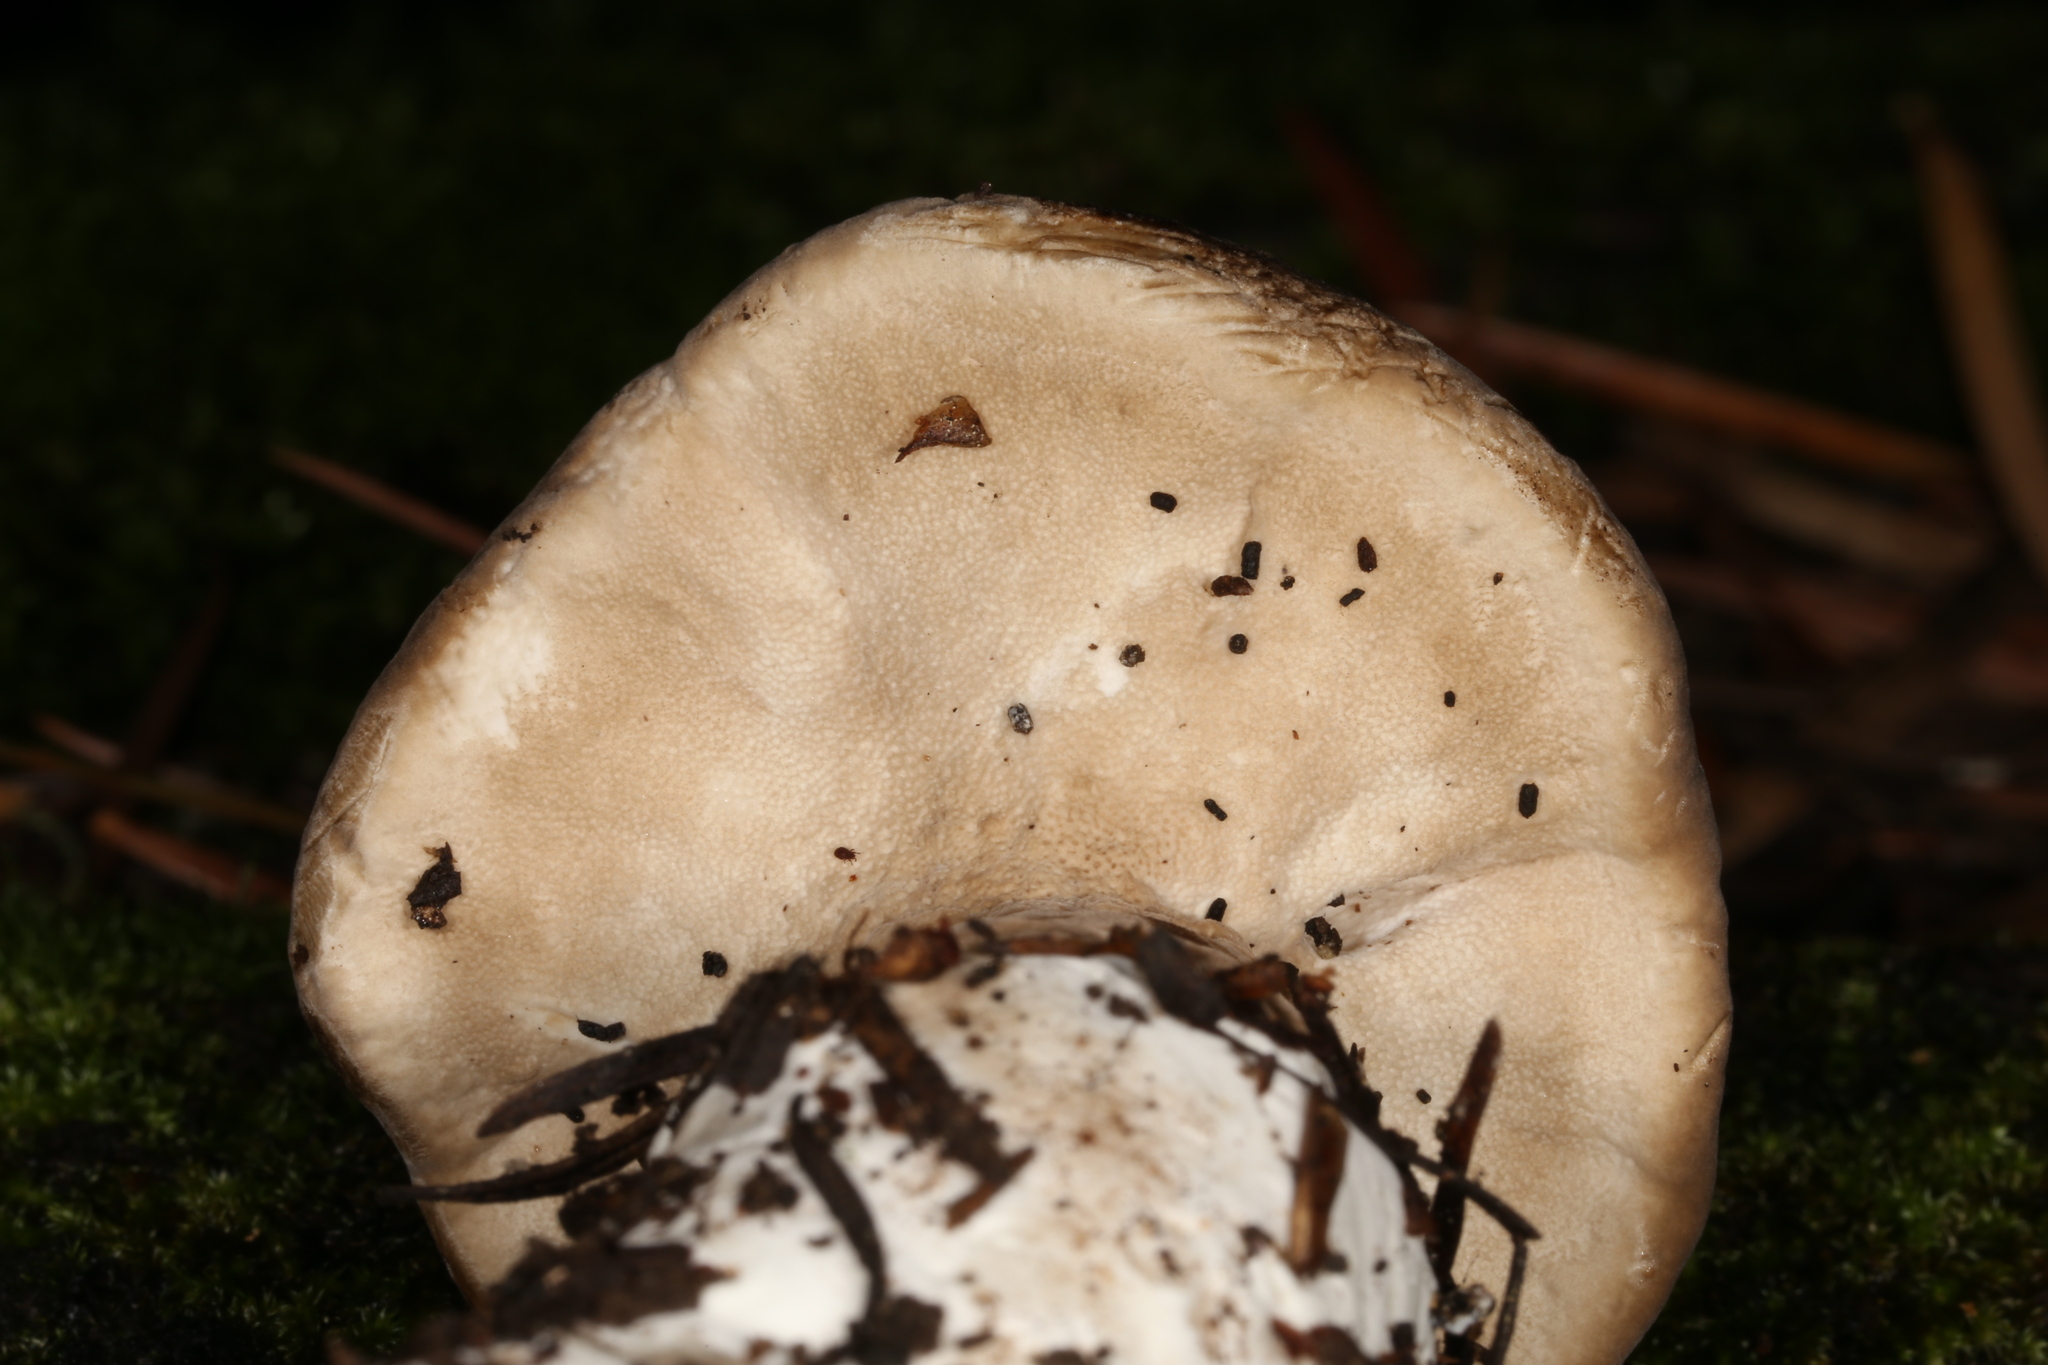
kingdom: Fungi
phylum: Basidiomycota
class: Agaricomycetes
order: Polyporales
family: Dacryobolaceae
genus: Jahnoporus
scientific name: Jahnoporus hirtus
